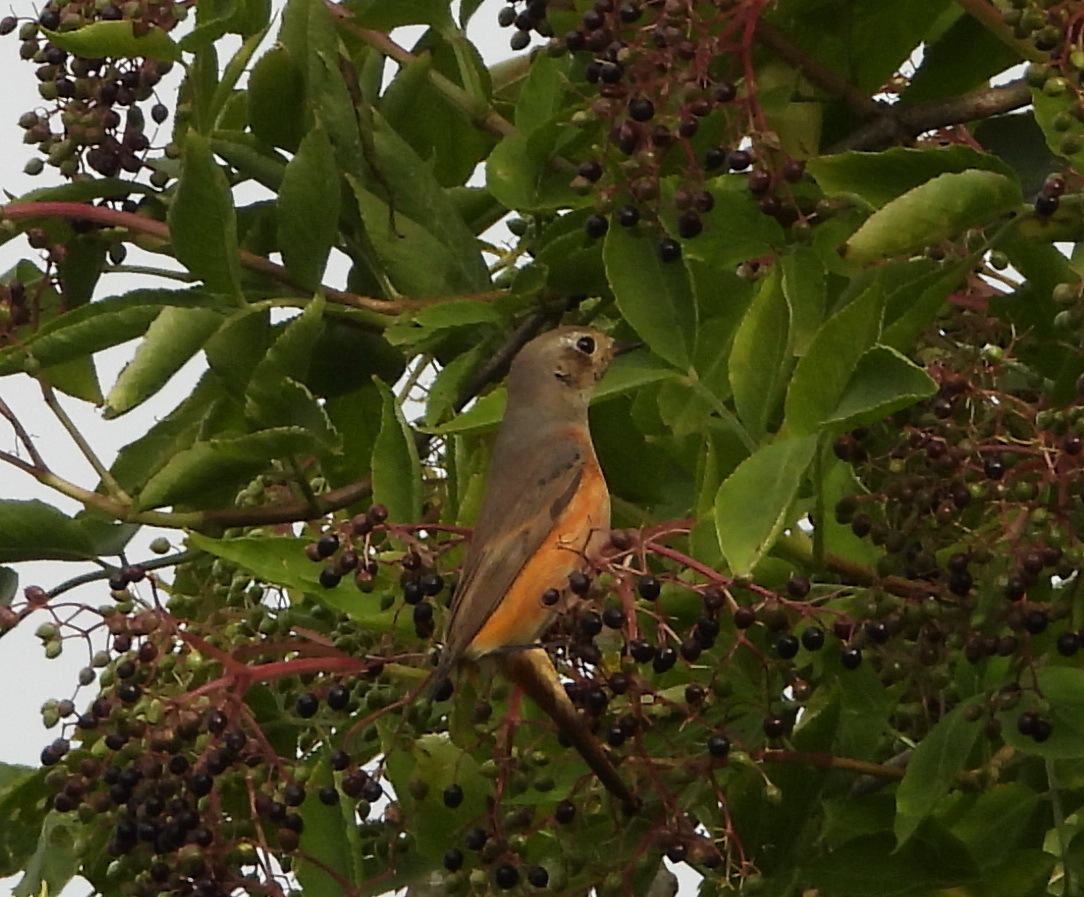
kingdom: Animalia
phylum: Chordata
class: Aves
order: Passeriformes
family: Muscicapidae
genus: Phoenicurus
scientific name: Phoenicurus phoenicurus
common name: Common redstart
